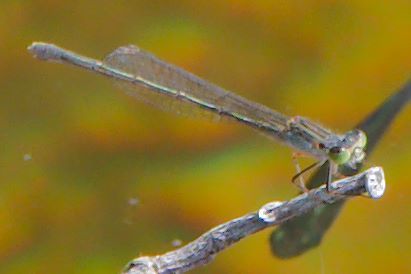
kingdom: Animalia
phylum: Arthropoda
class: Insecta
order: Odonata
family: Coenagrionidae
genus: Ischnura
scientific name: Ischnura ramburii
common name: Rambur's forktail
